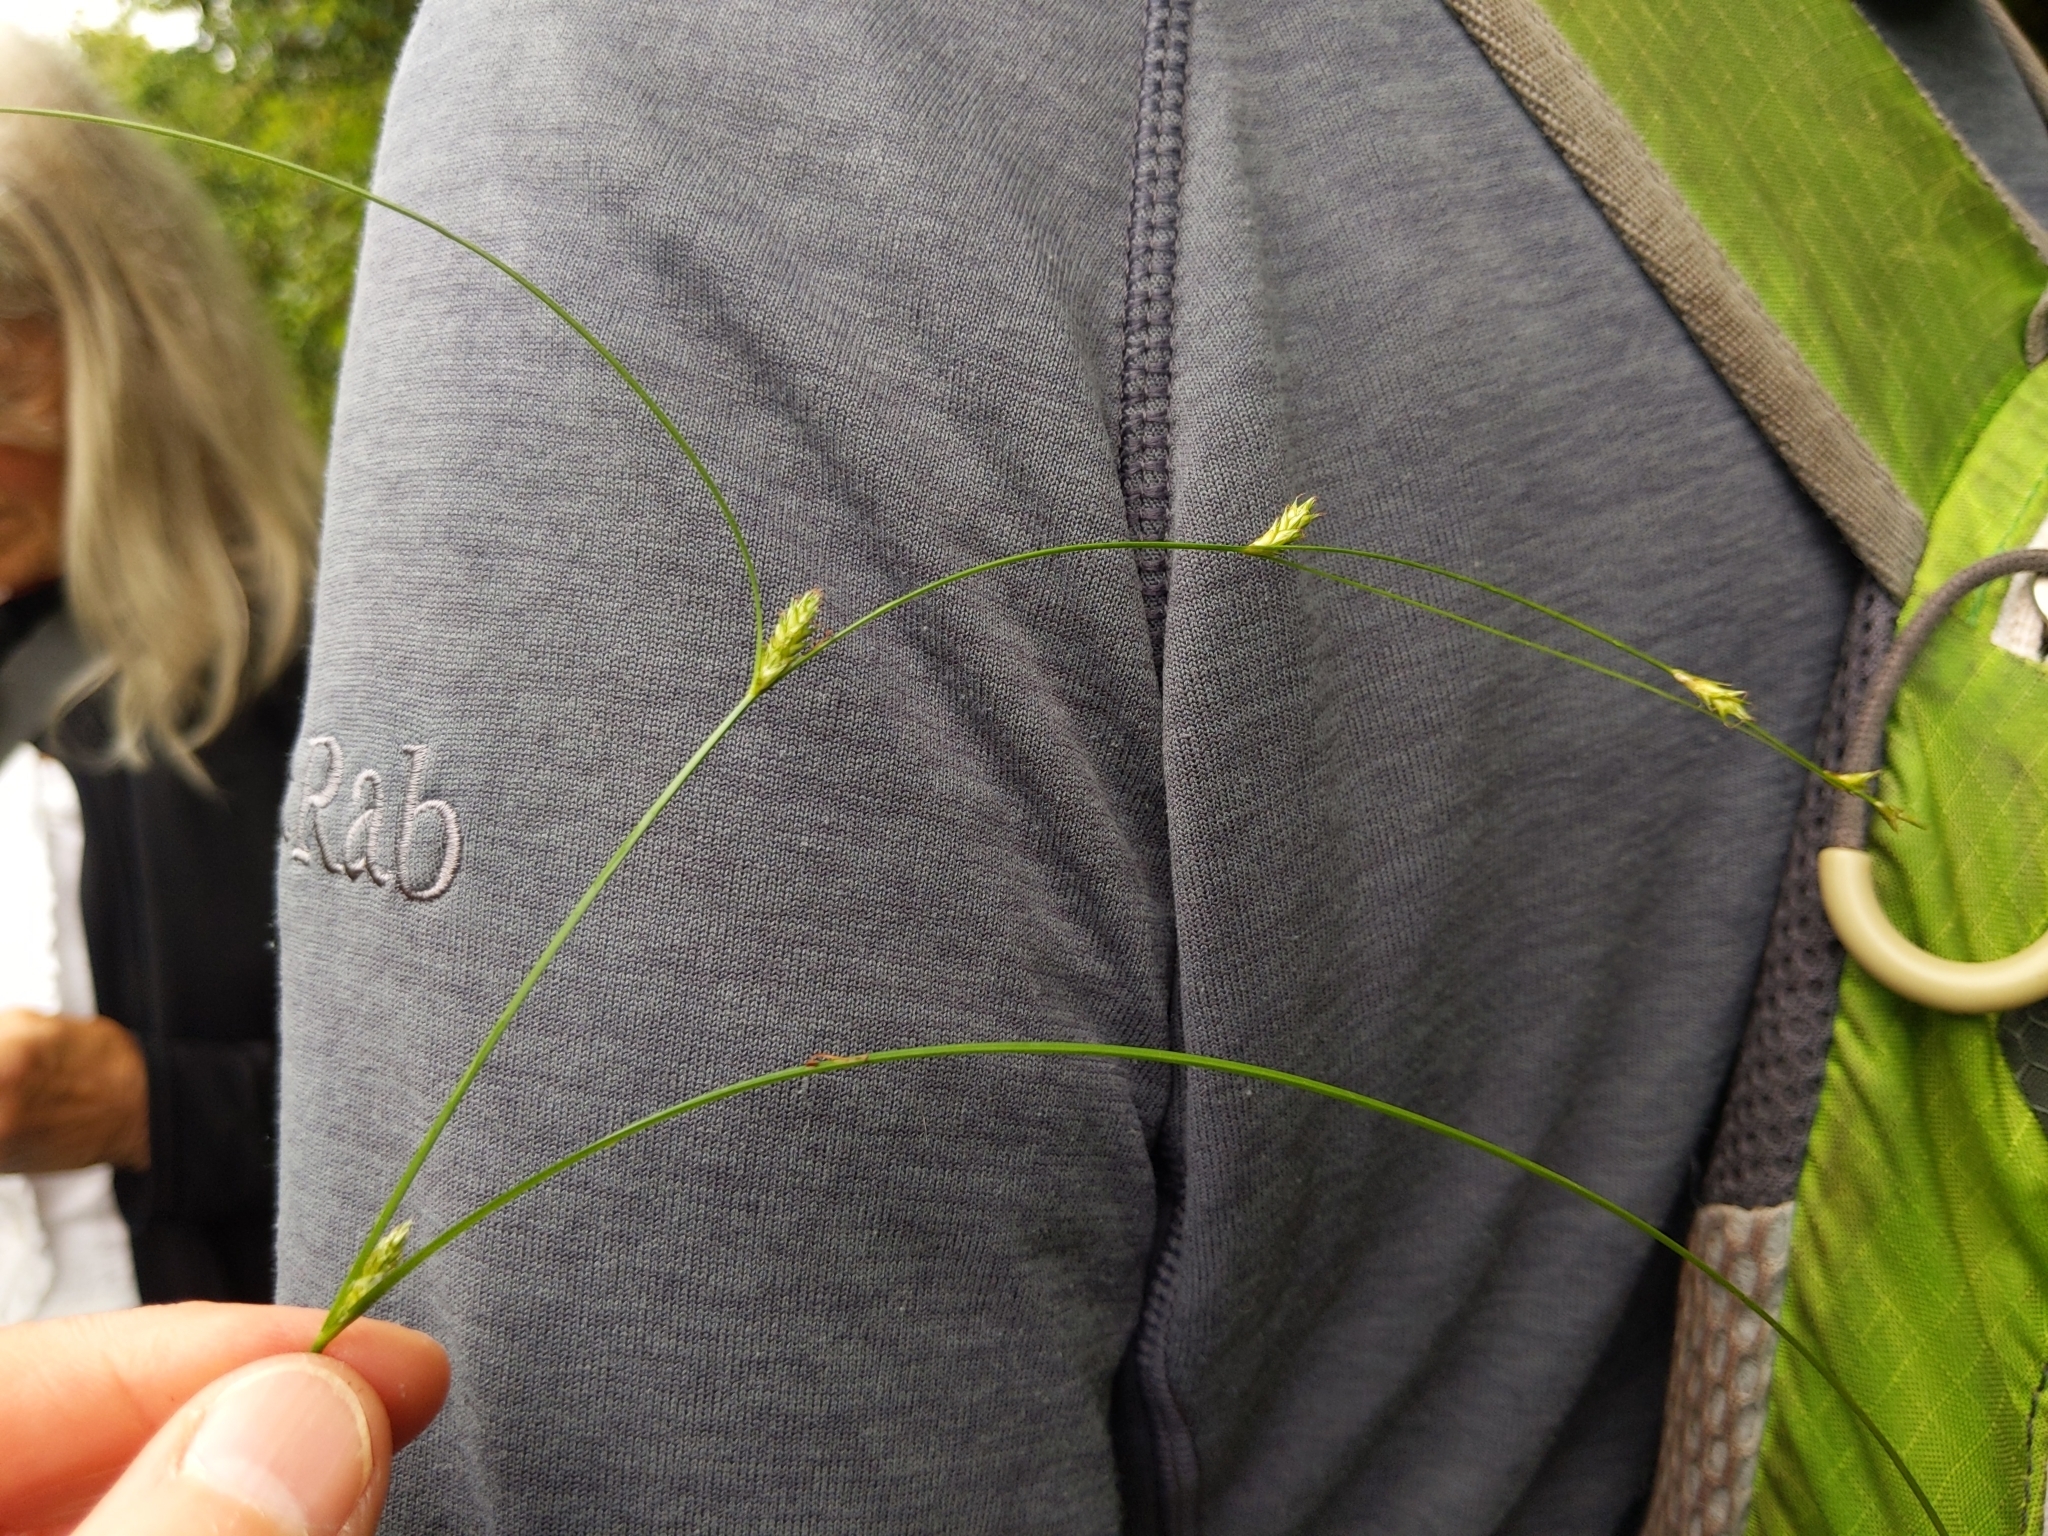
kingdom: Plantae
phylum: Tracheophyta
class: Liliopsida
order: Poales
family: Cyperaceae
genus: Carex
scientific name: Carex remota
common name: Remote sedge
